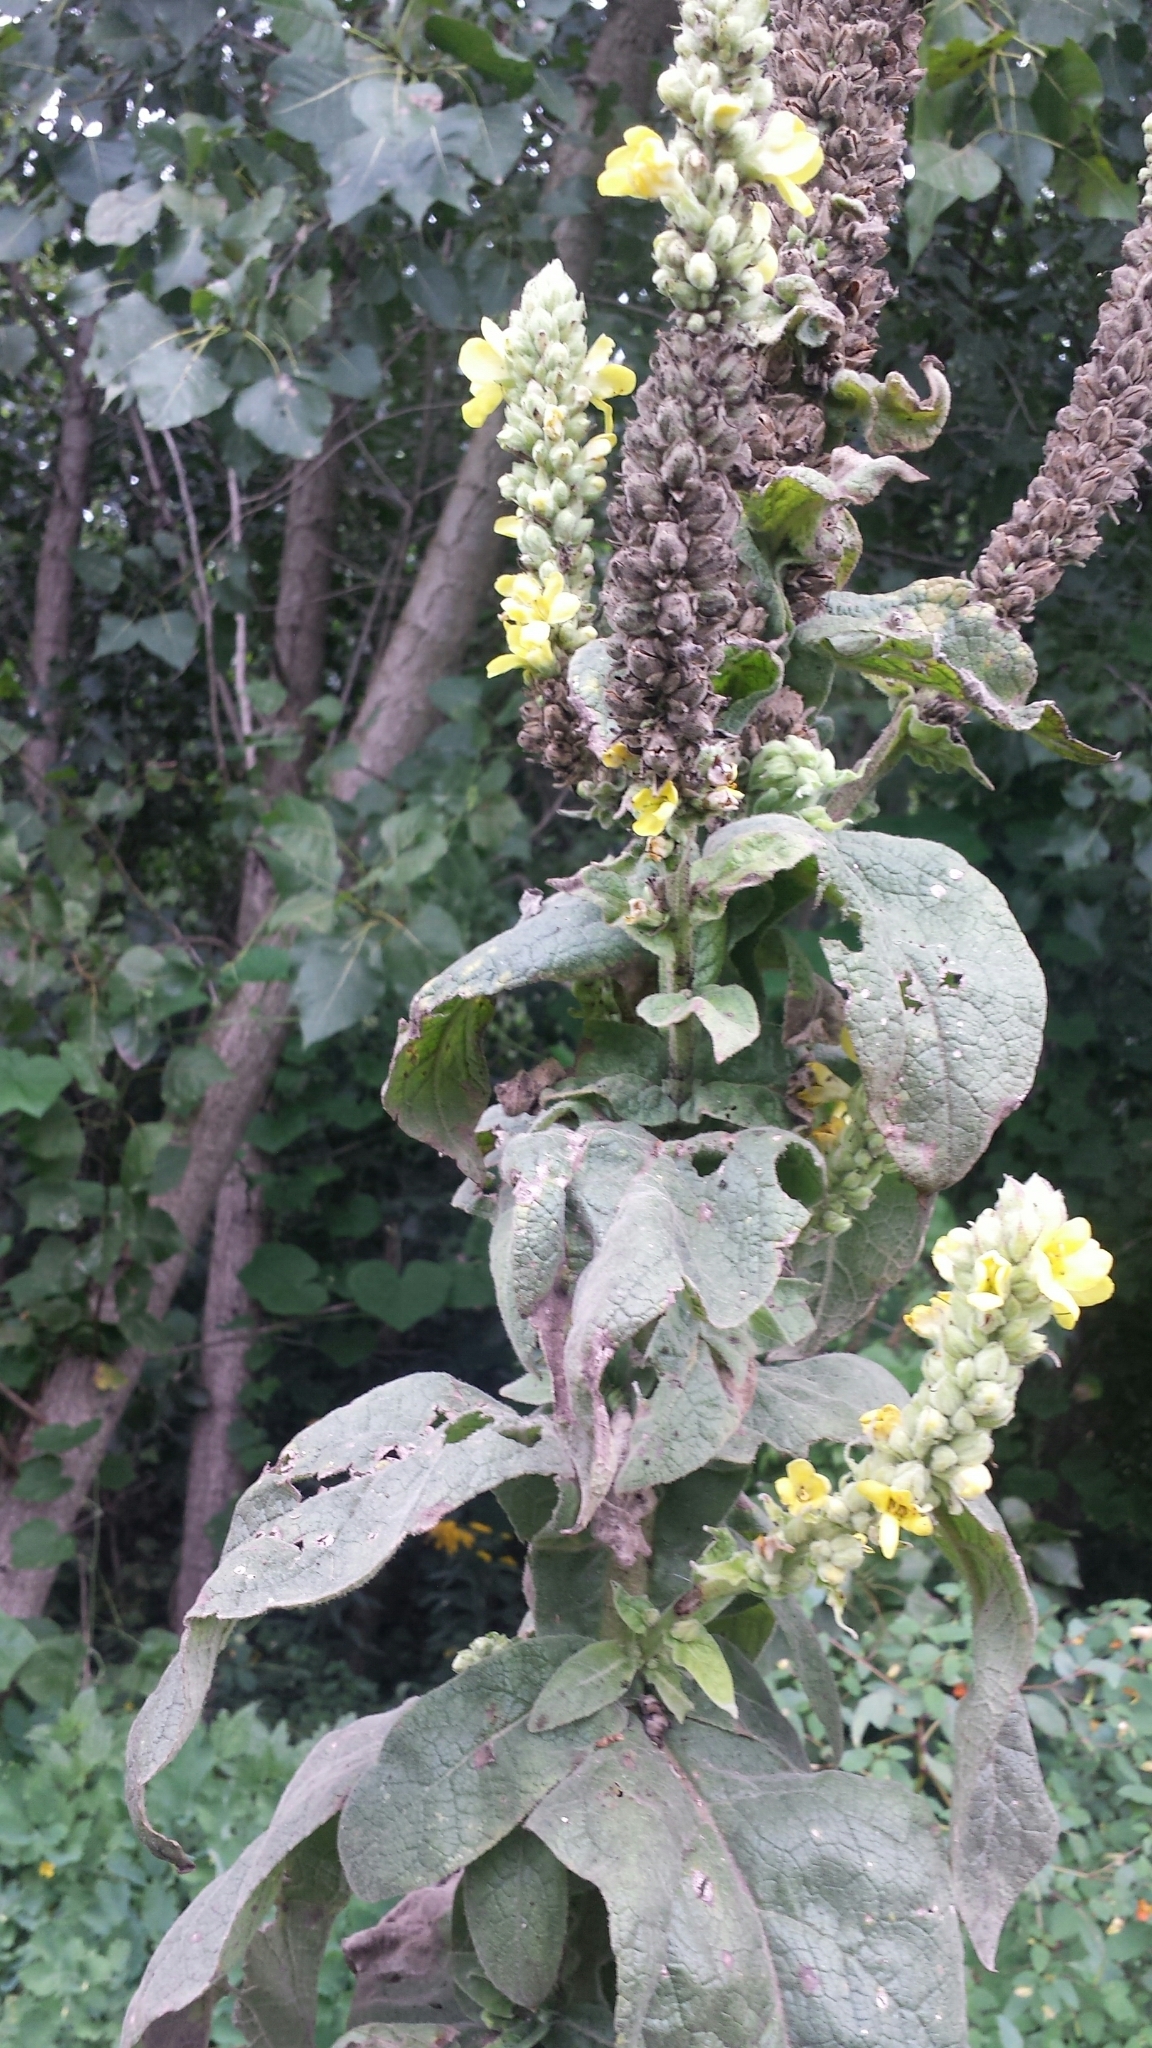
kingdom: Plantae
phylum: Tracheophyta
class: Magnoliopsida
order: Lamiales
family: Scrophulariaceae
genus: Verbascum
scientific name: Verbascum thapsus
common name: Common mullein
